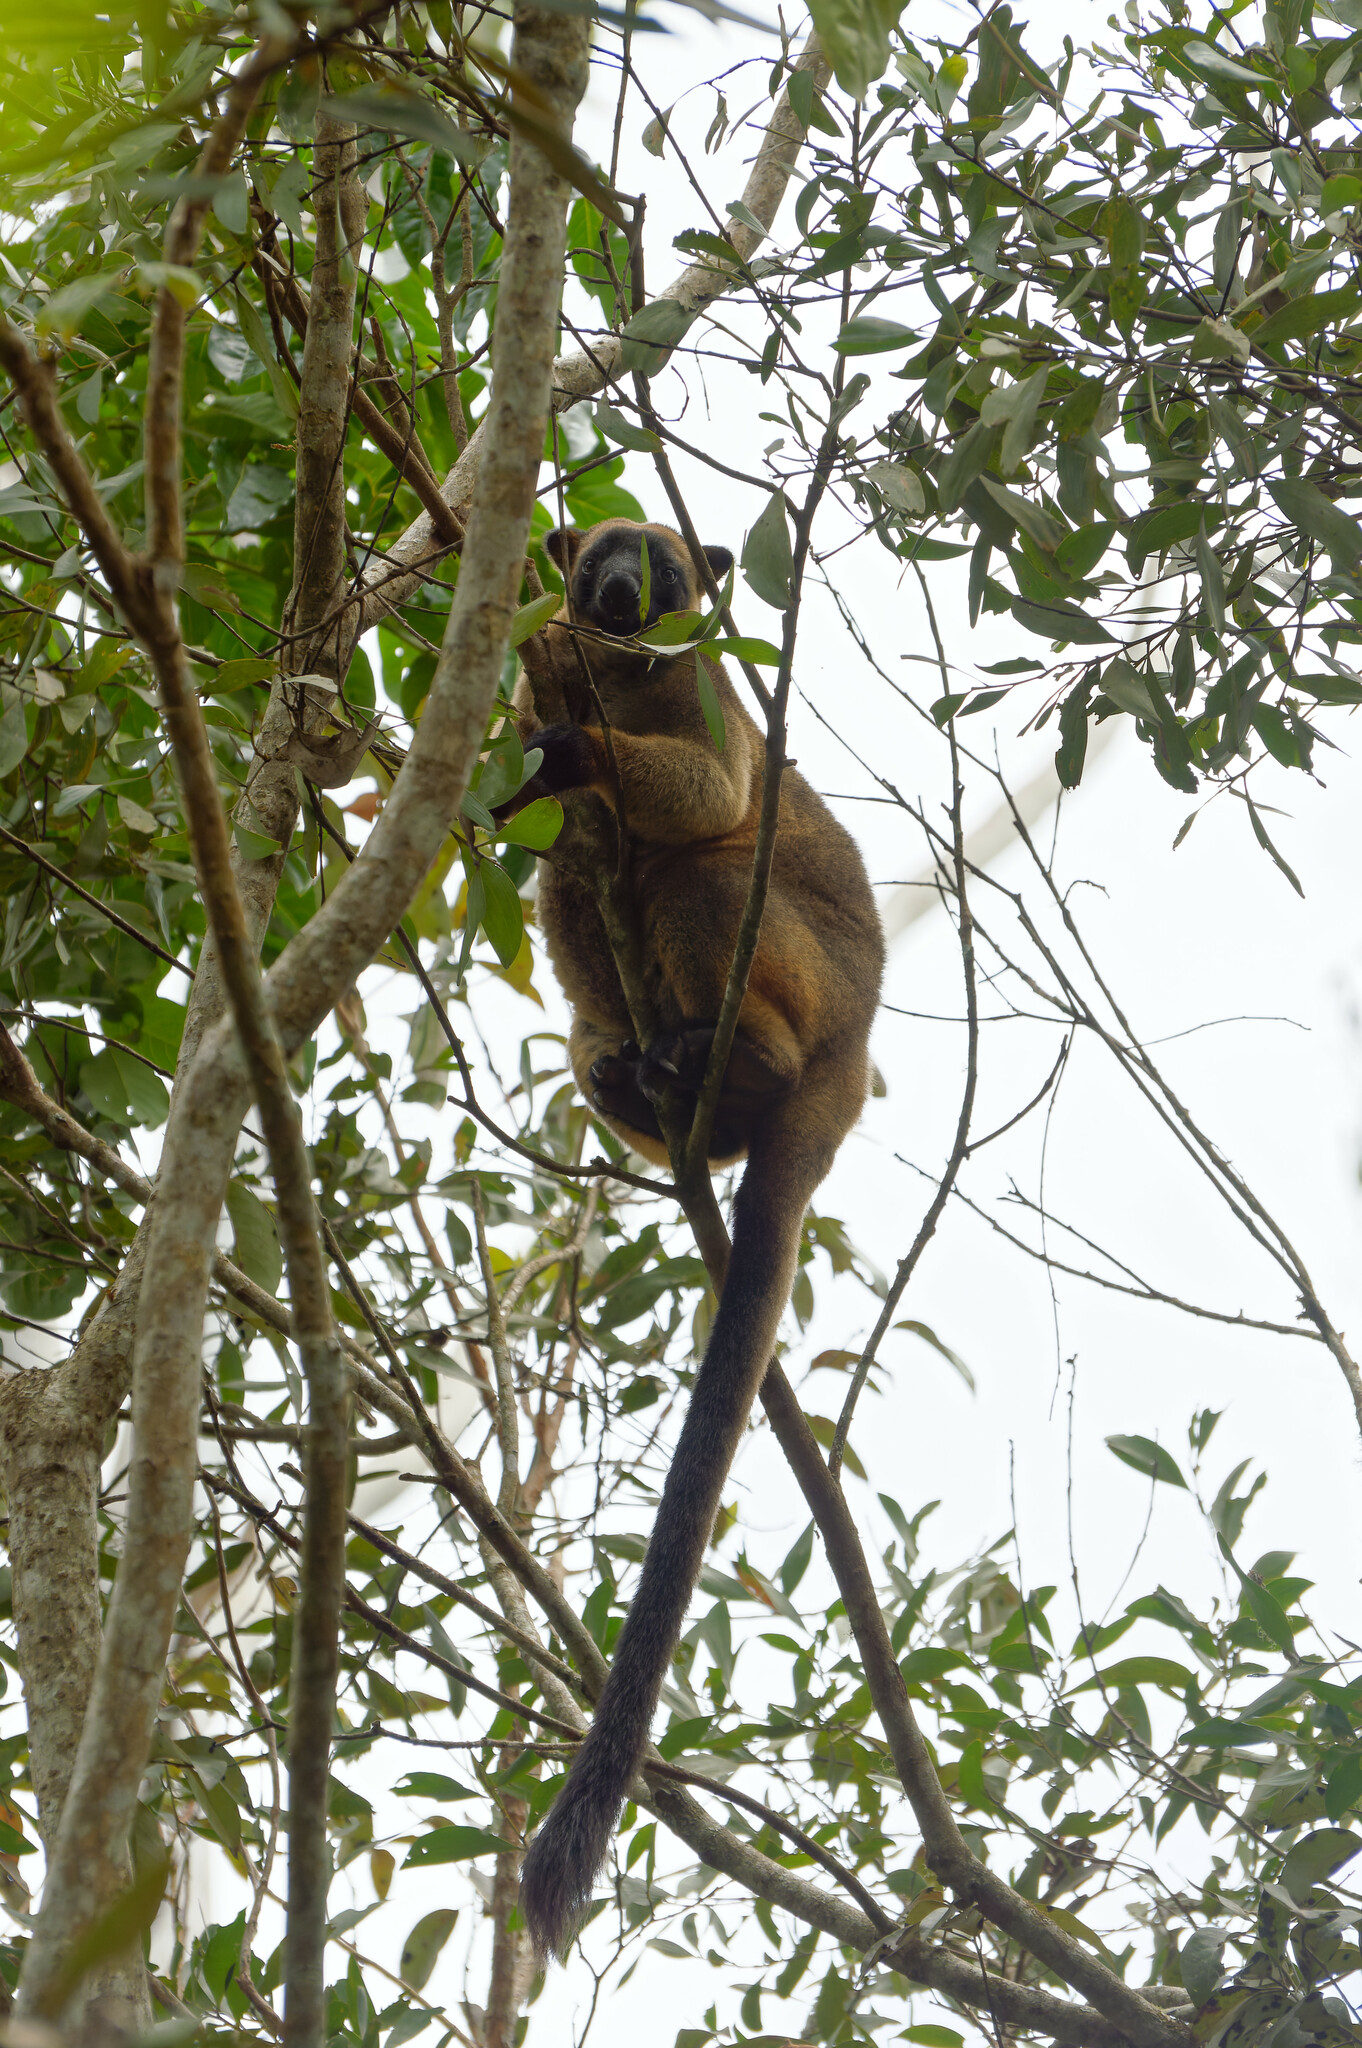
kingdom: Animalia
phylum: Chordata
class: Mammalia
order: Diprotodontia
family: Macropodidae
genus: Dendrolagus
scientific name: Dendrolagus lumholtzi
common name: Lumholtz's tree kangaroo
